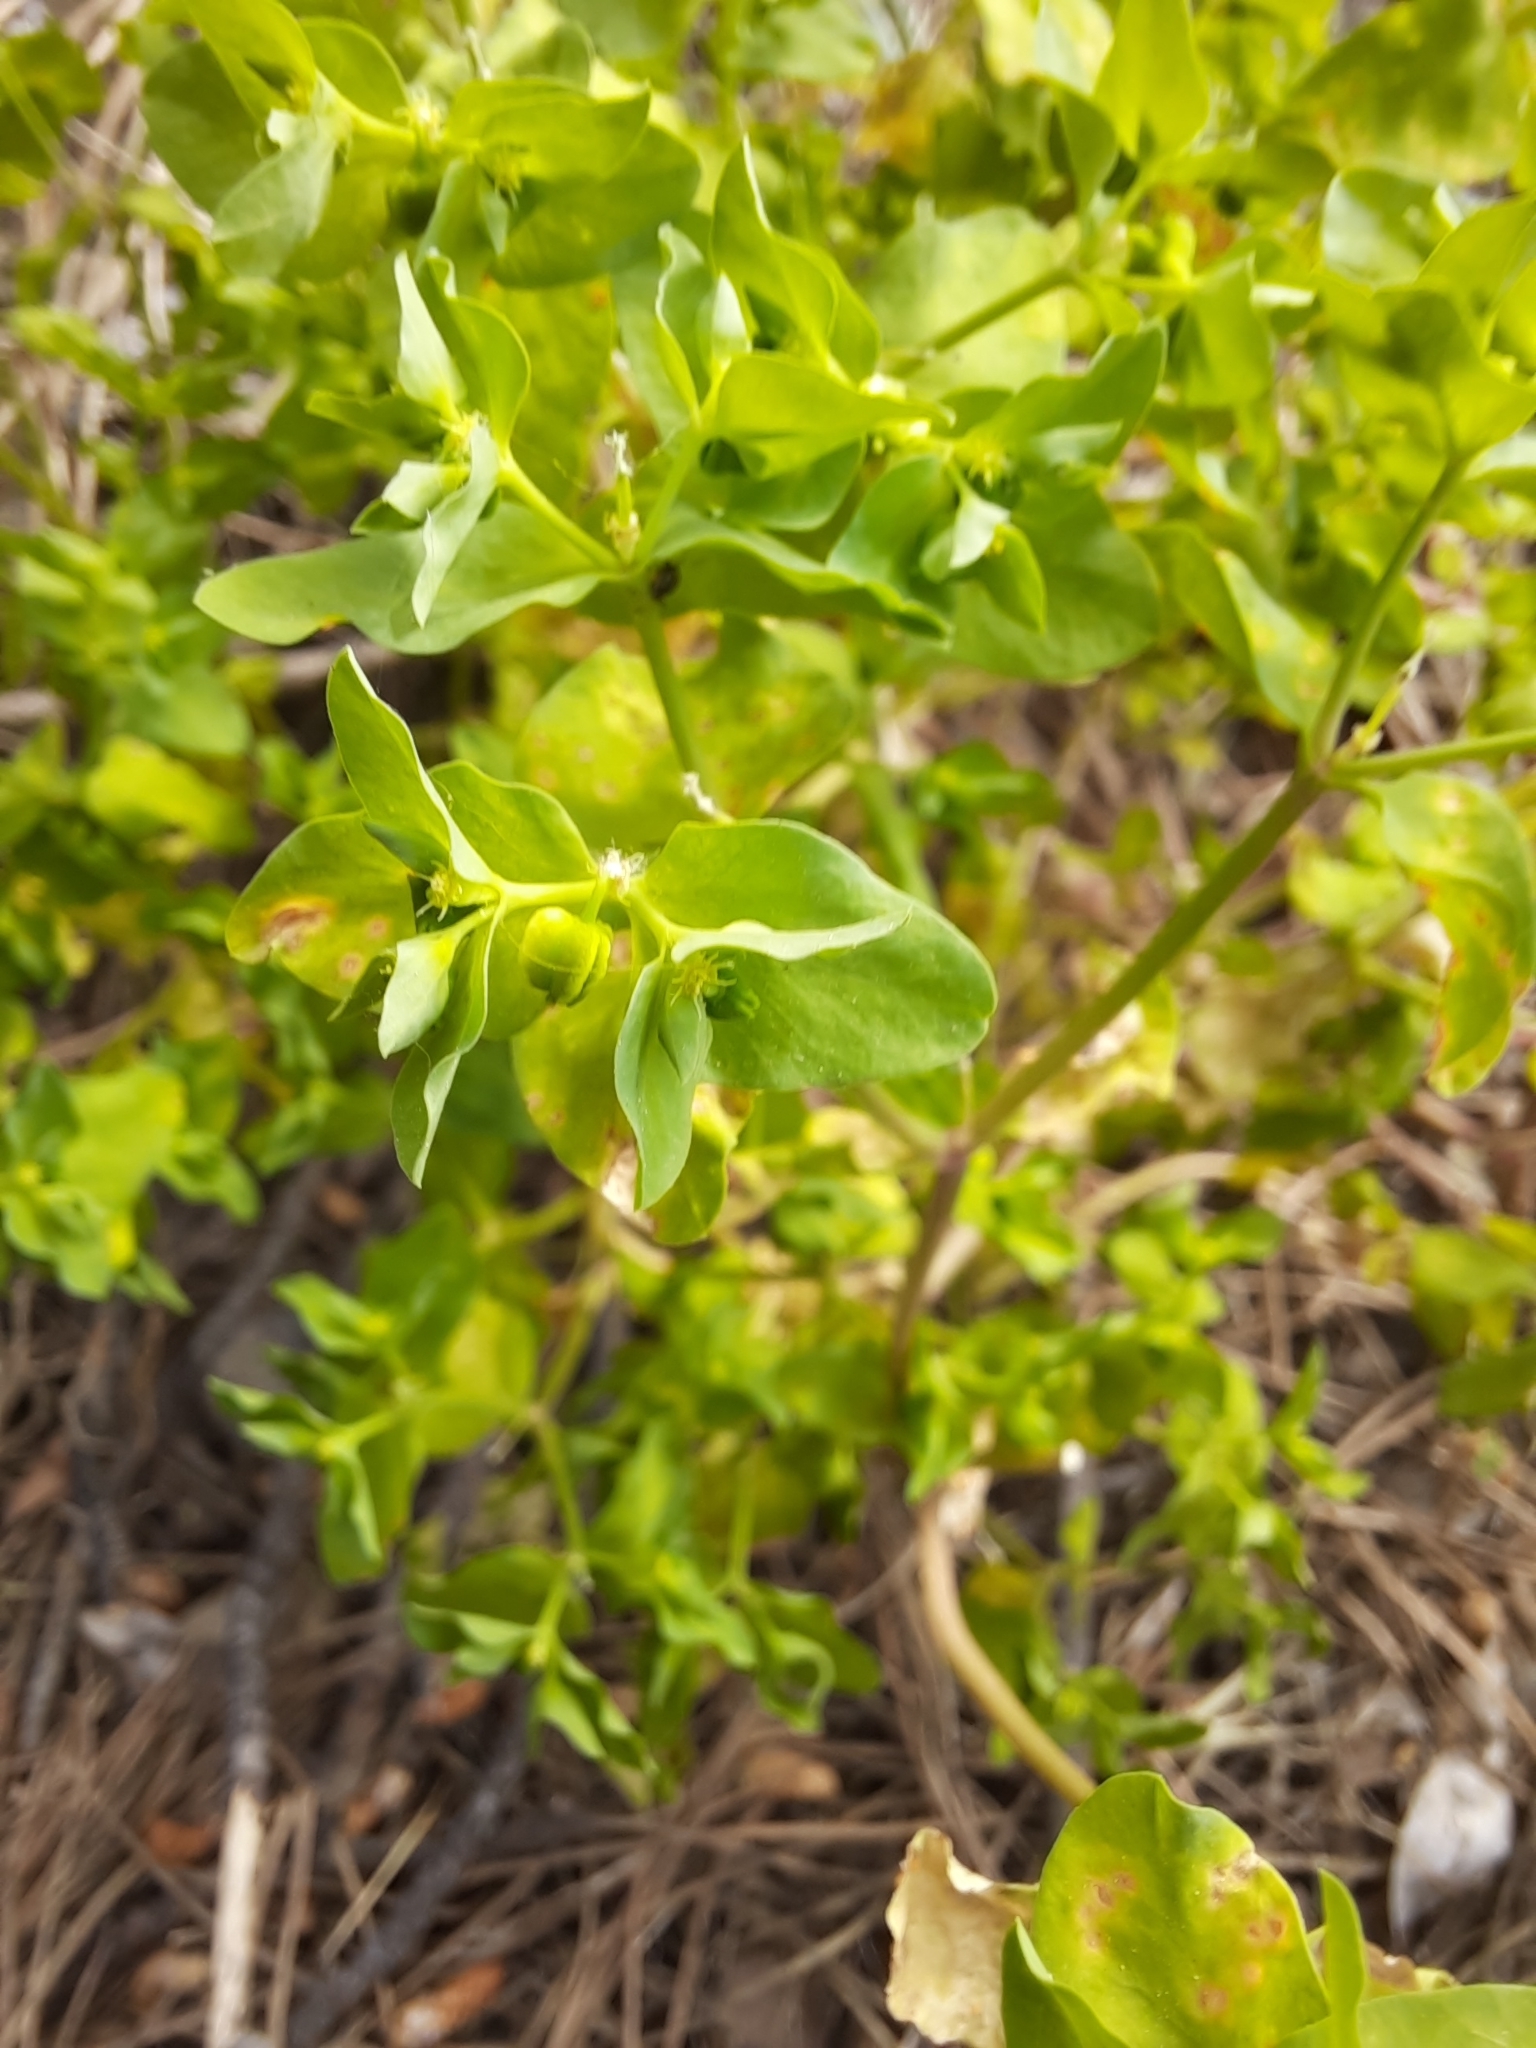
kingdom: Plantae
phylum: Tracheophyta
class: Magnoliopsida
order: Malpighiales
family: Euphorbiaceae
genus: Euphorbia
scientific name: Euphorbia peplus
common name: Petty spurge
